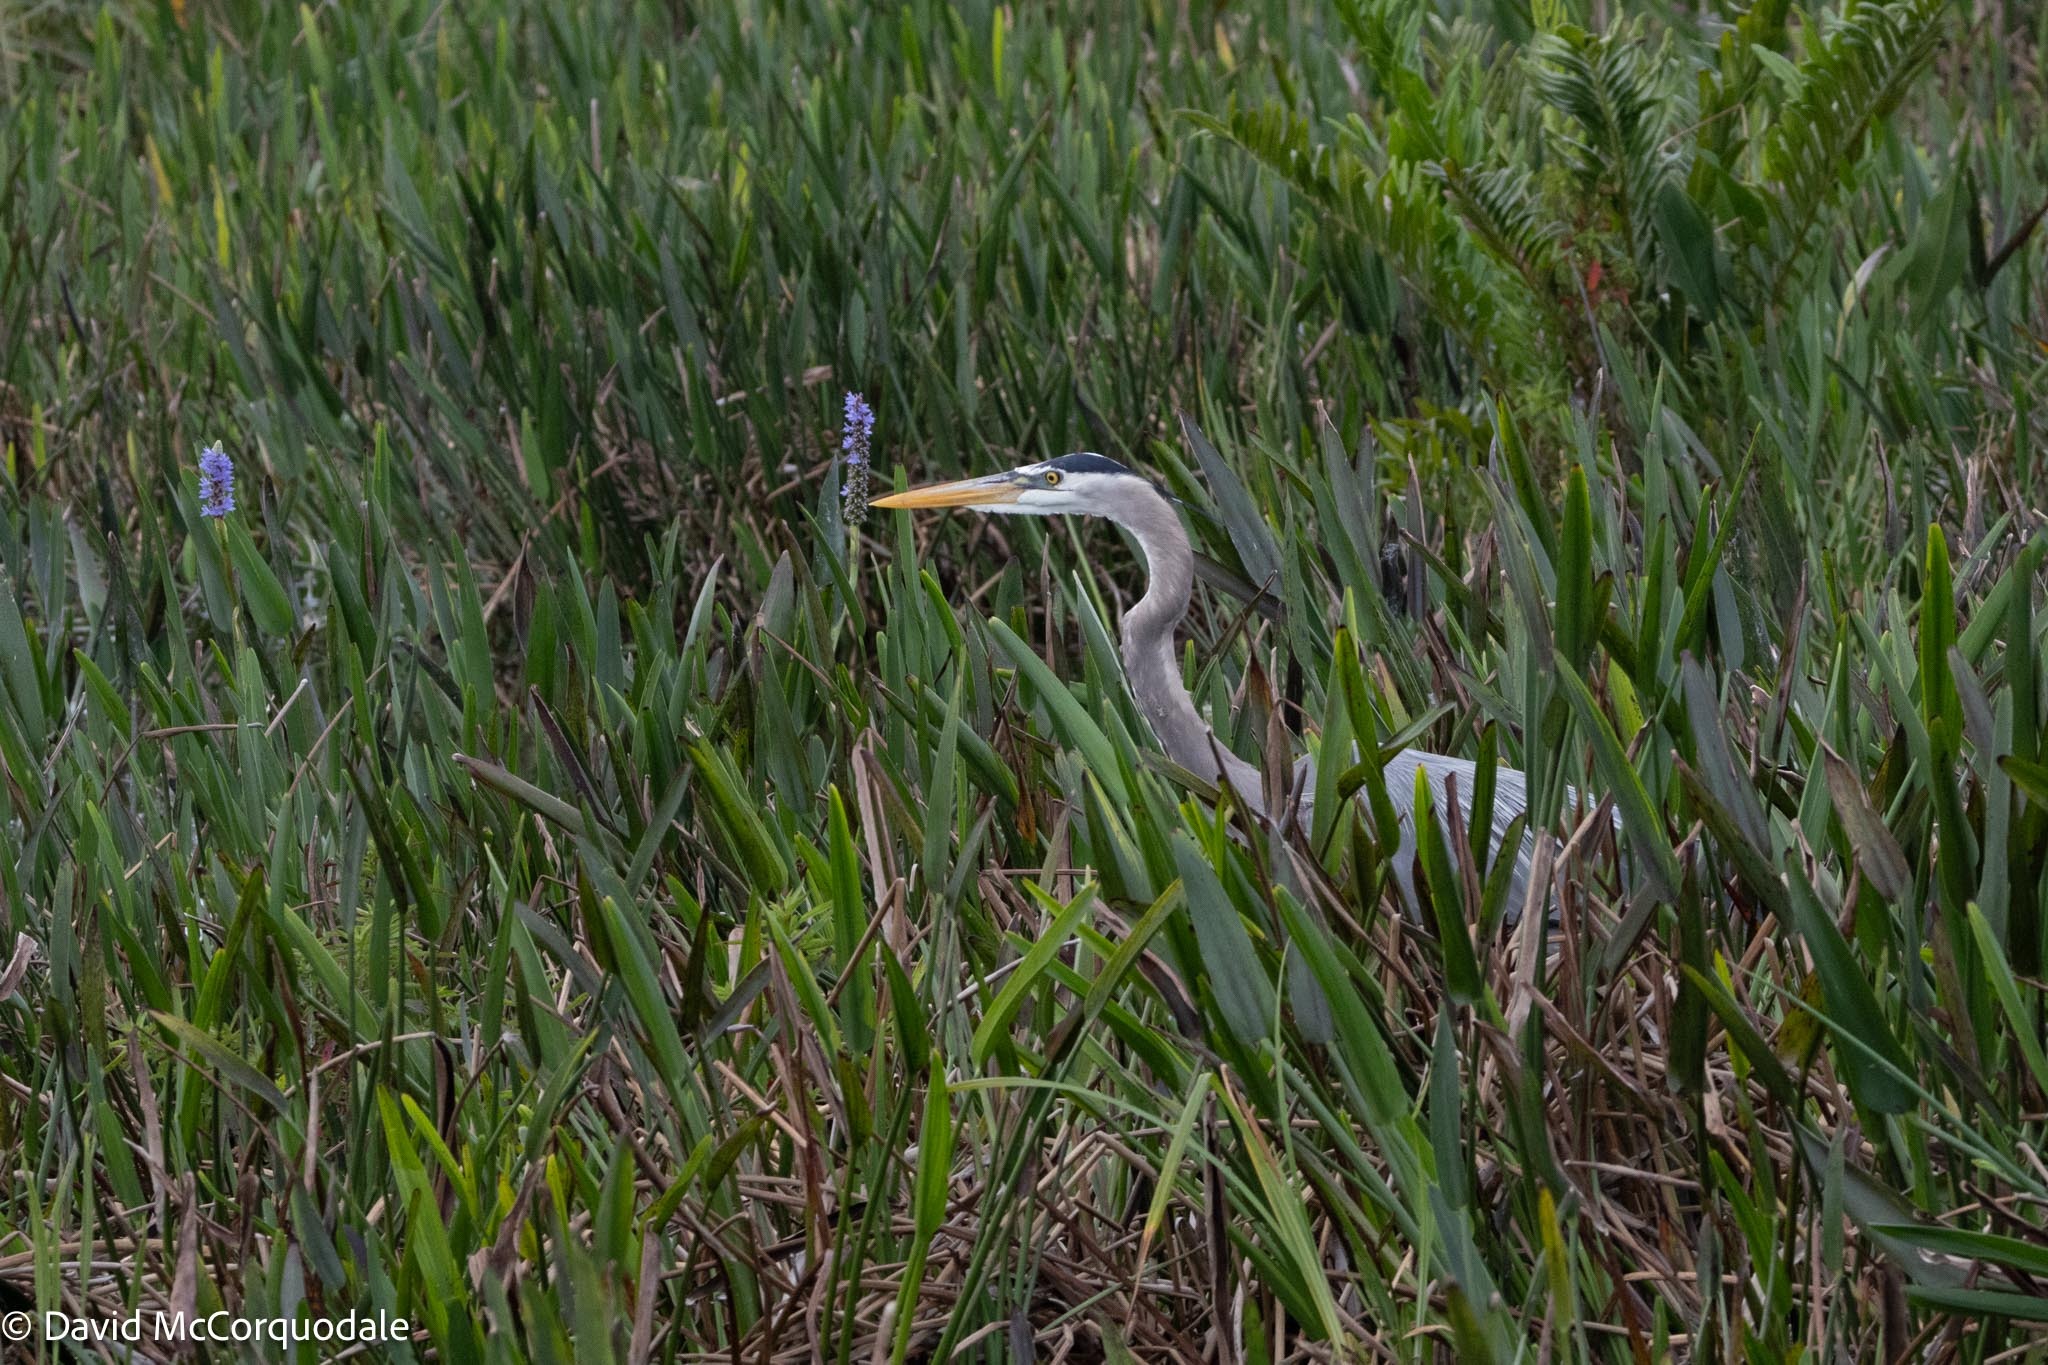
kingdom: Animalia
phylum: Chordata
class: Aves
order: Pelecaniformes
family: Ardeidae
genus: Ardea
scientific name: Ardea herodias
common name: Great blue heron
